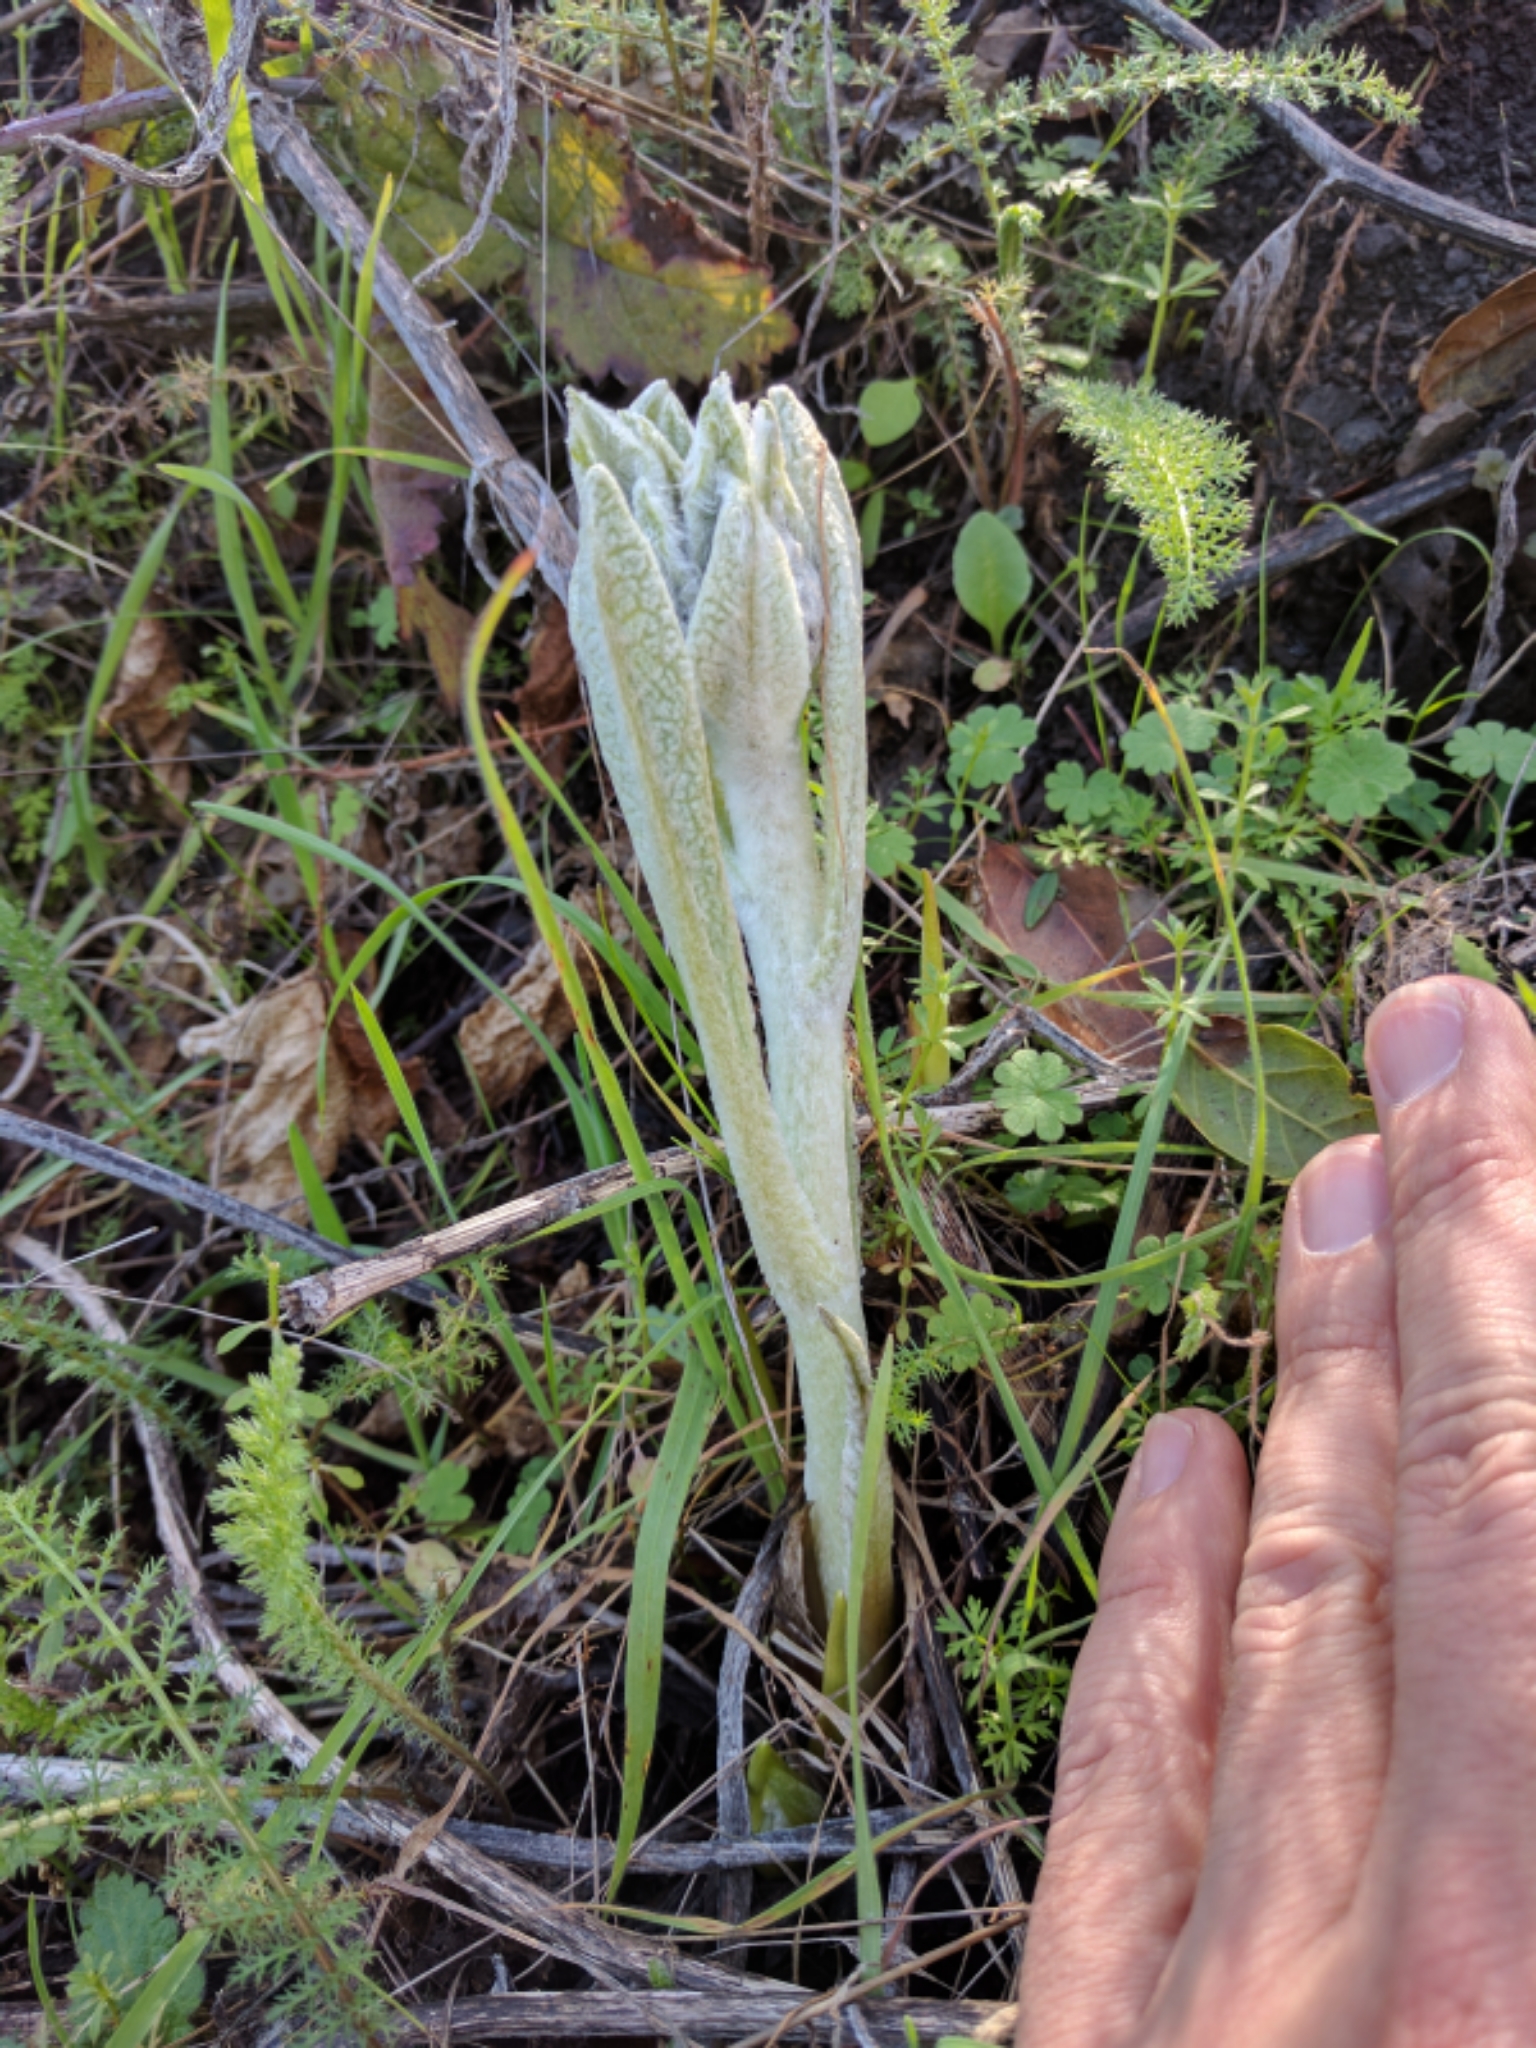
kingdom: Plantae
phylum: Tracheophyta
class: Magnoliopsida
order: Asterales
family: Asteraceae
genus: Wyethia
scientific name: Wyethia helenioides
